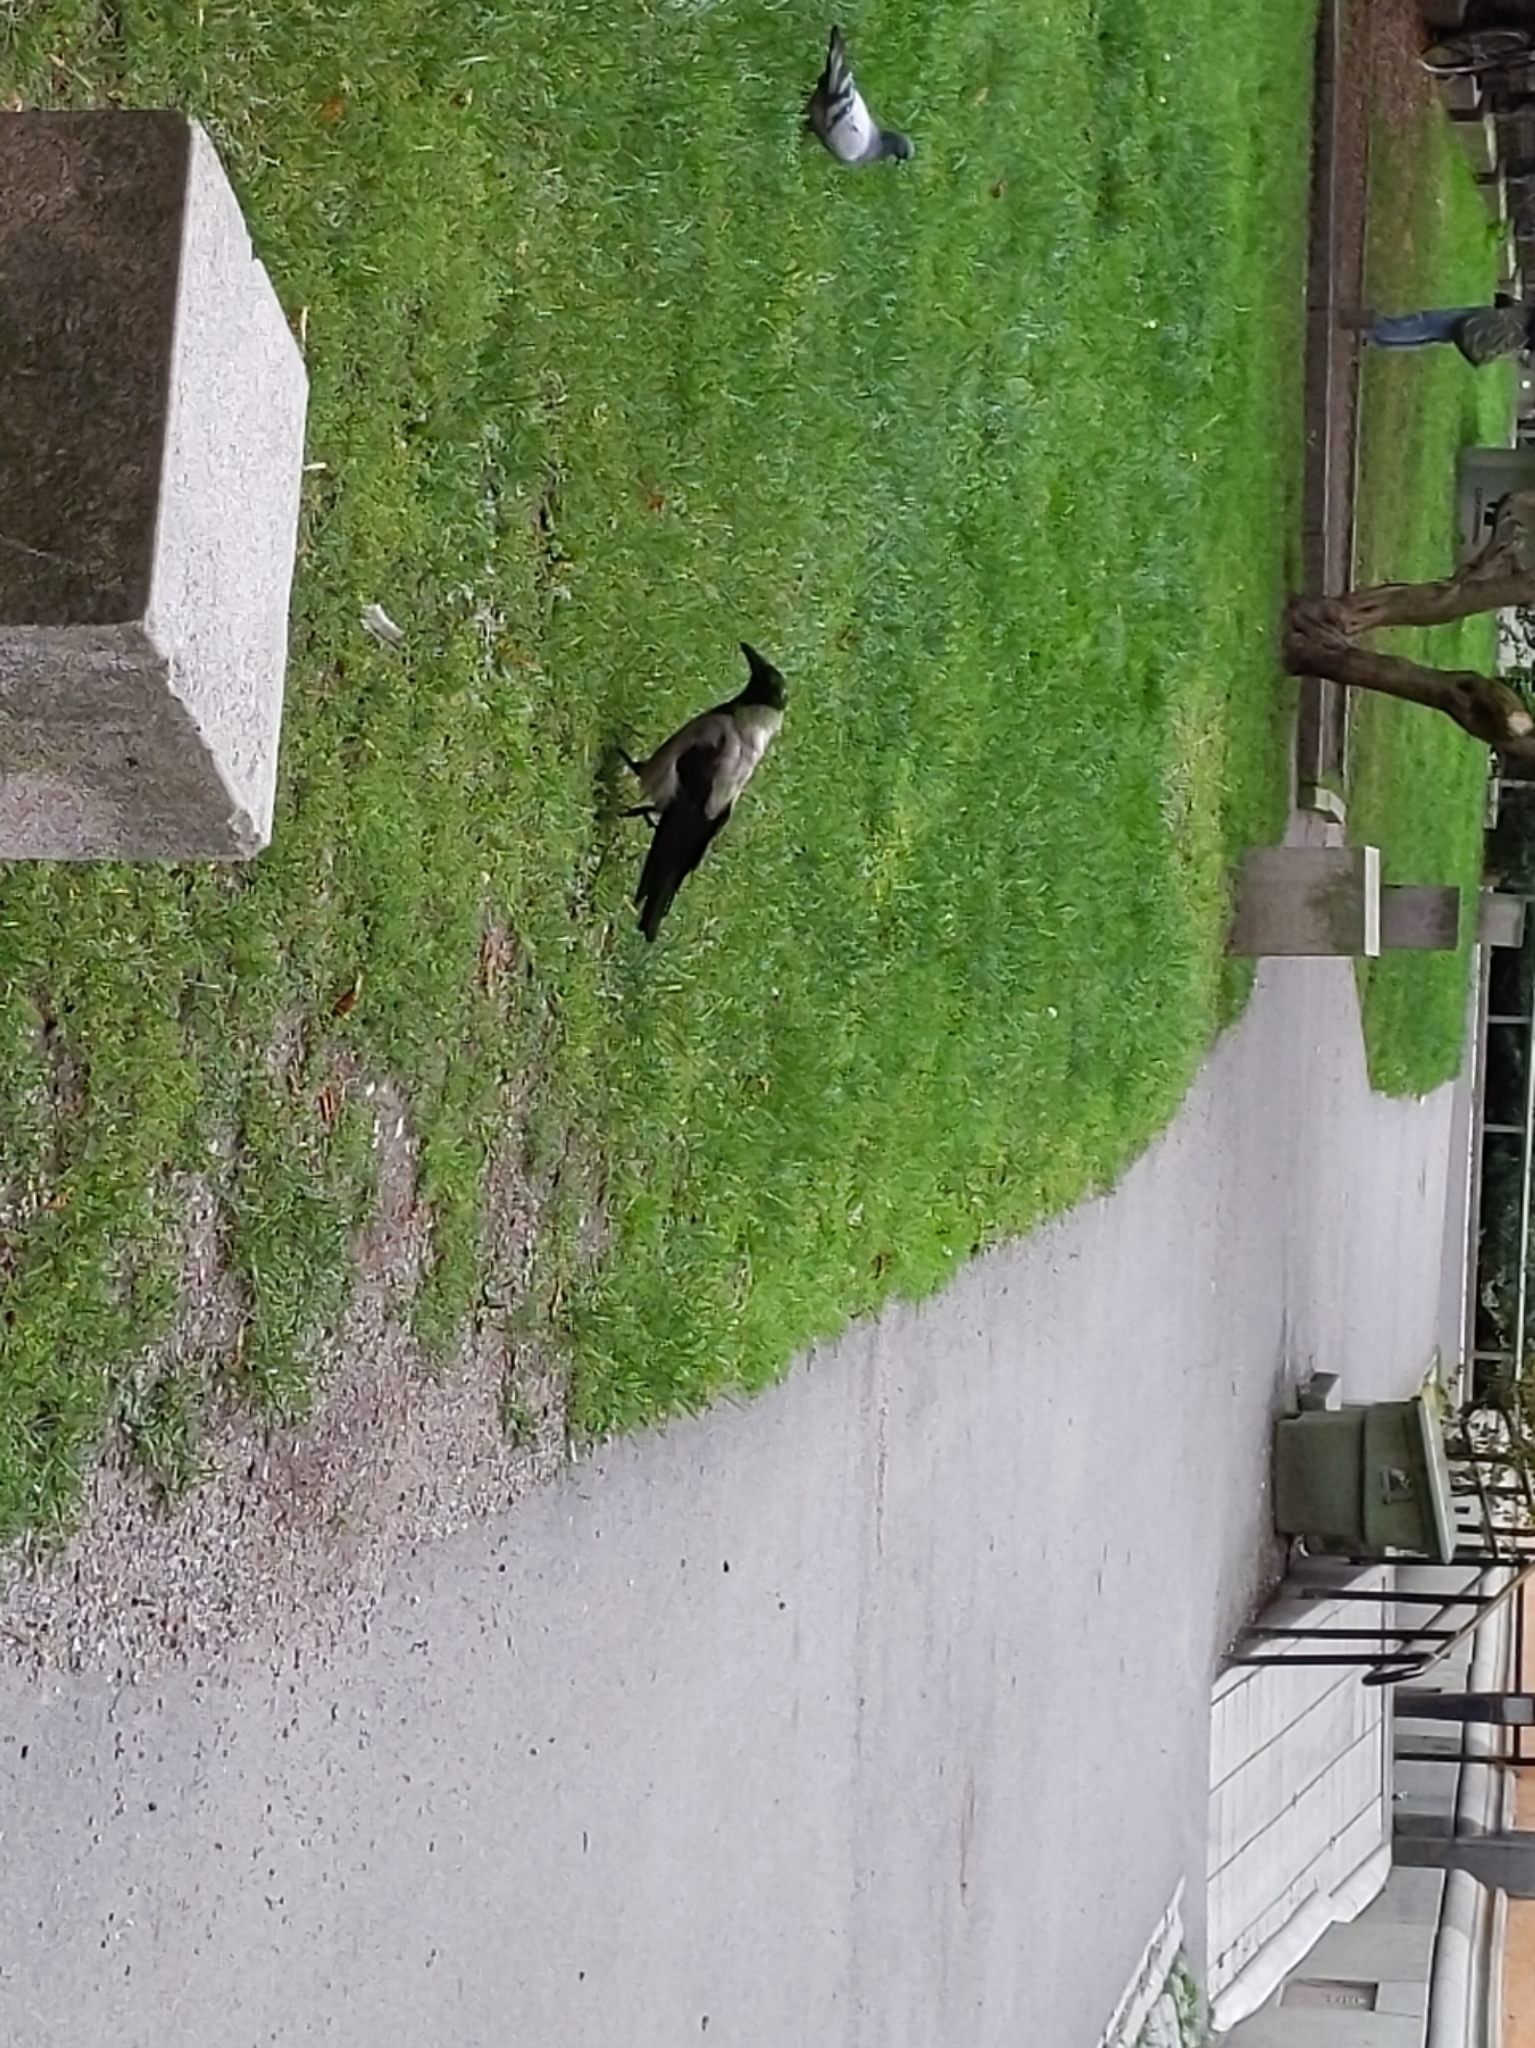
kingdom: Animalia
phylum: Chordata
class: Aves
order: Passeriformes
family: Corvidae
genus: Corvus
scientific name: Corvus cornix
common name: Hooded crow
